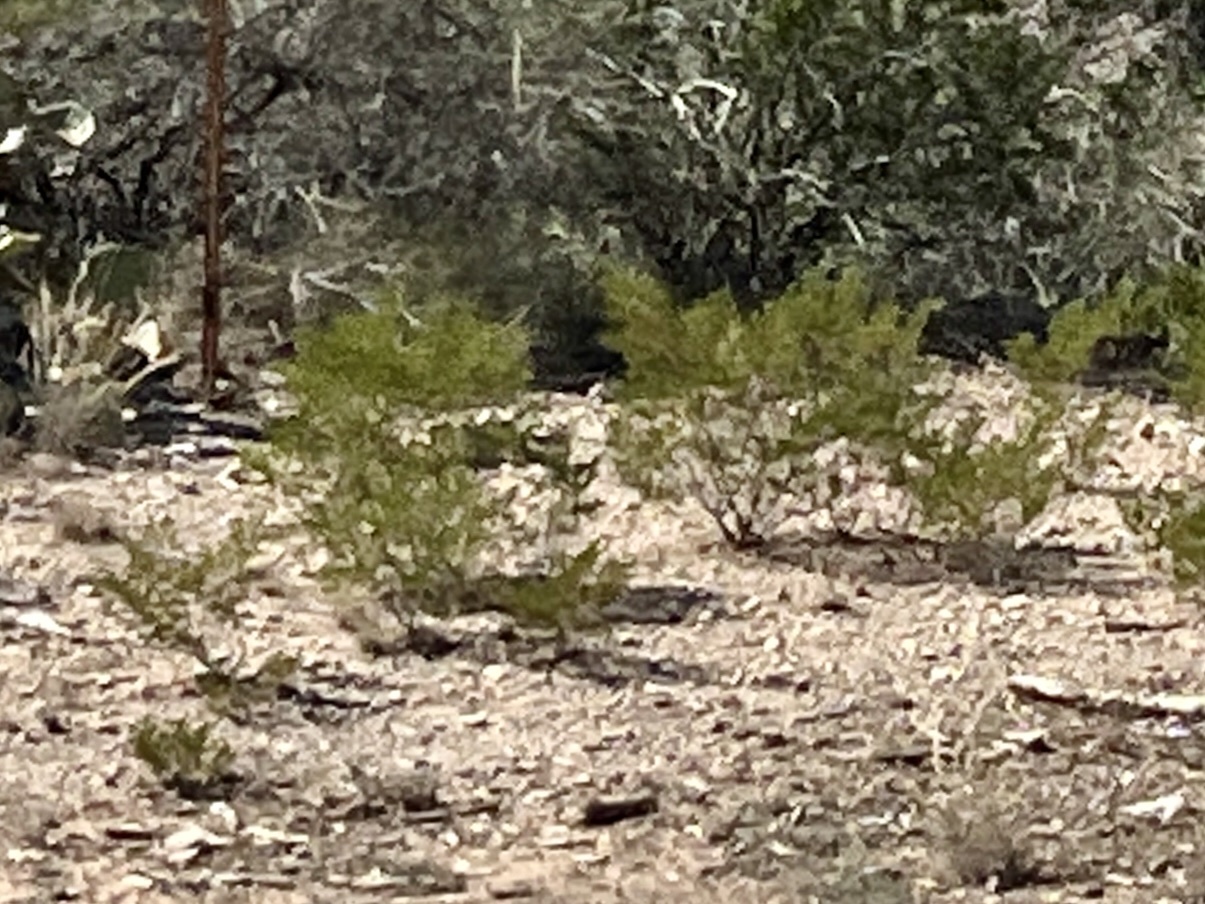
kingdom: Plantae
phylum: Tracheophyta
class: Magnoliopsida
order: Zygophyllales
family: Zygophyllaceae
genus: Larrea
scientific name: Larrea tridentata
